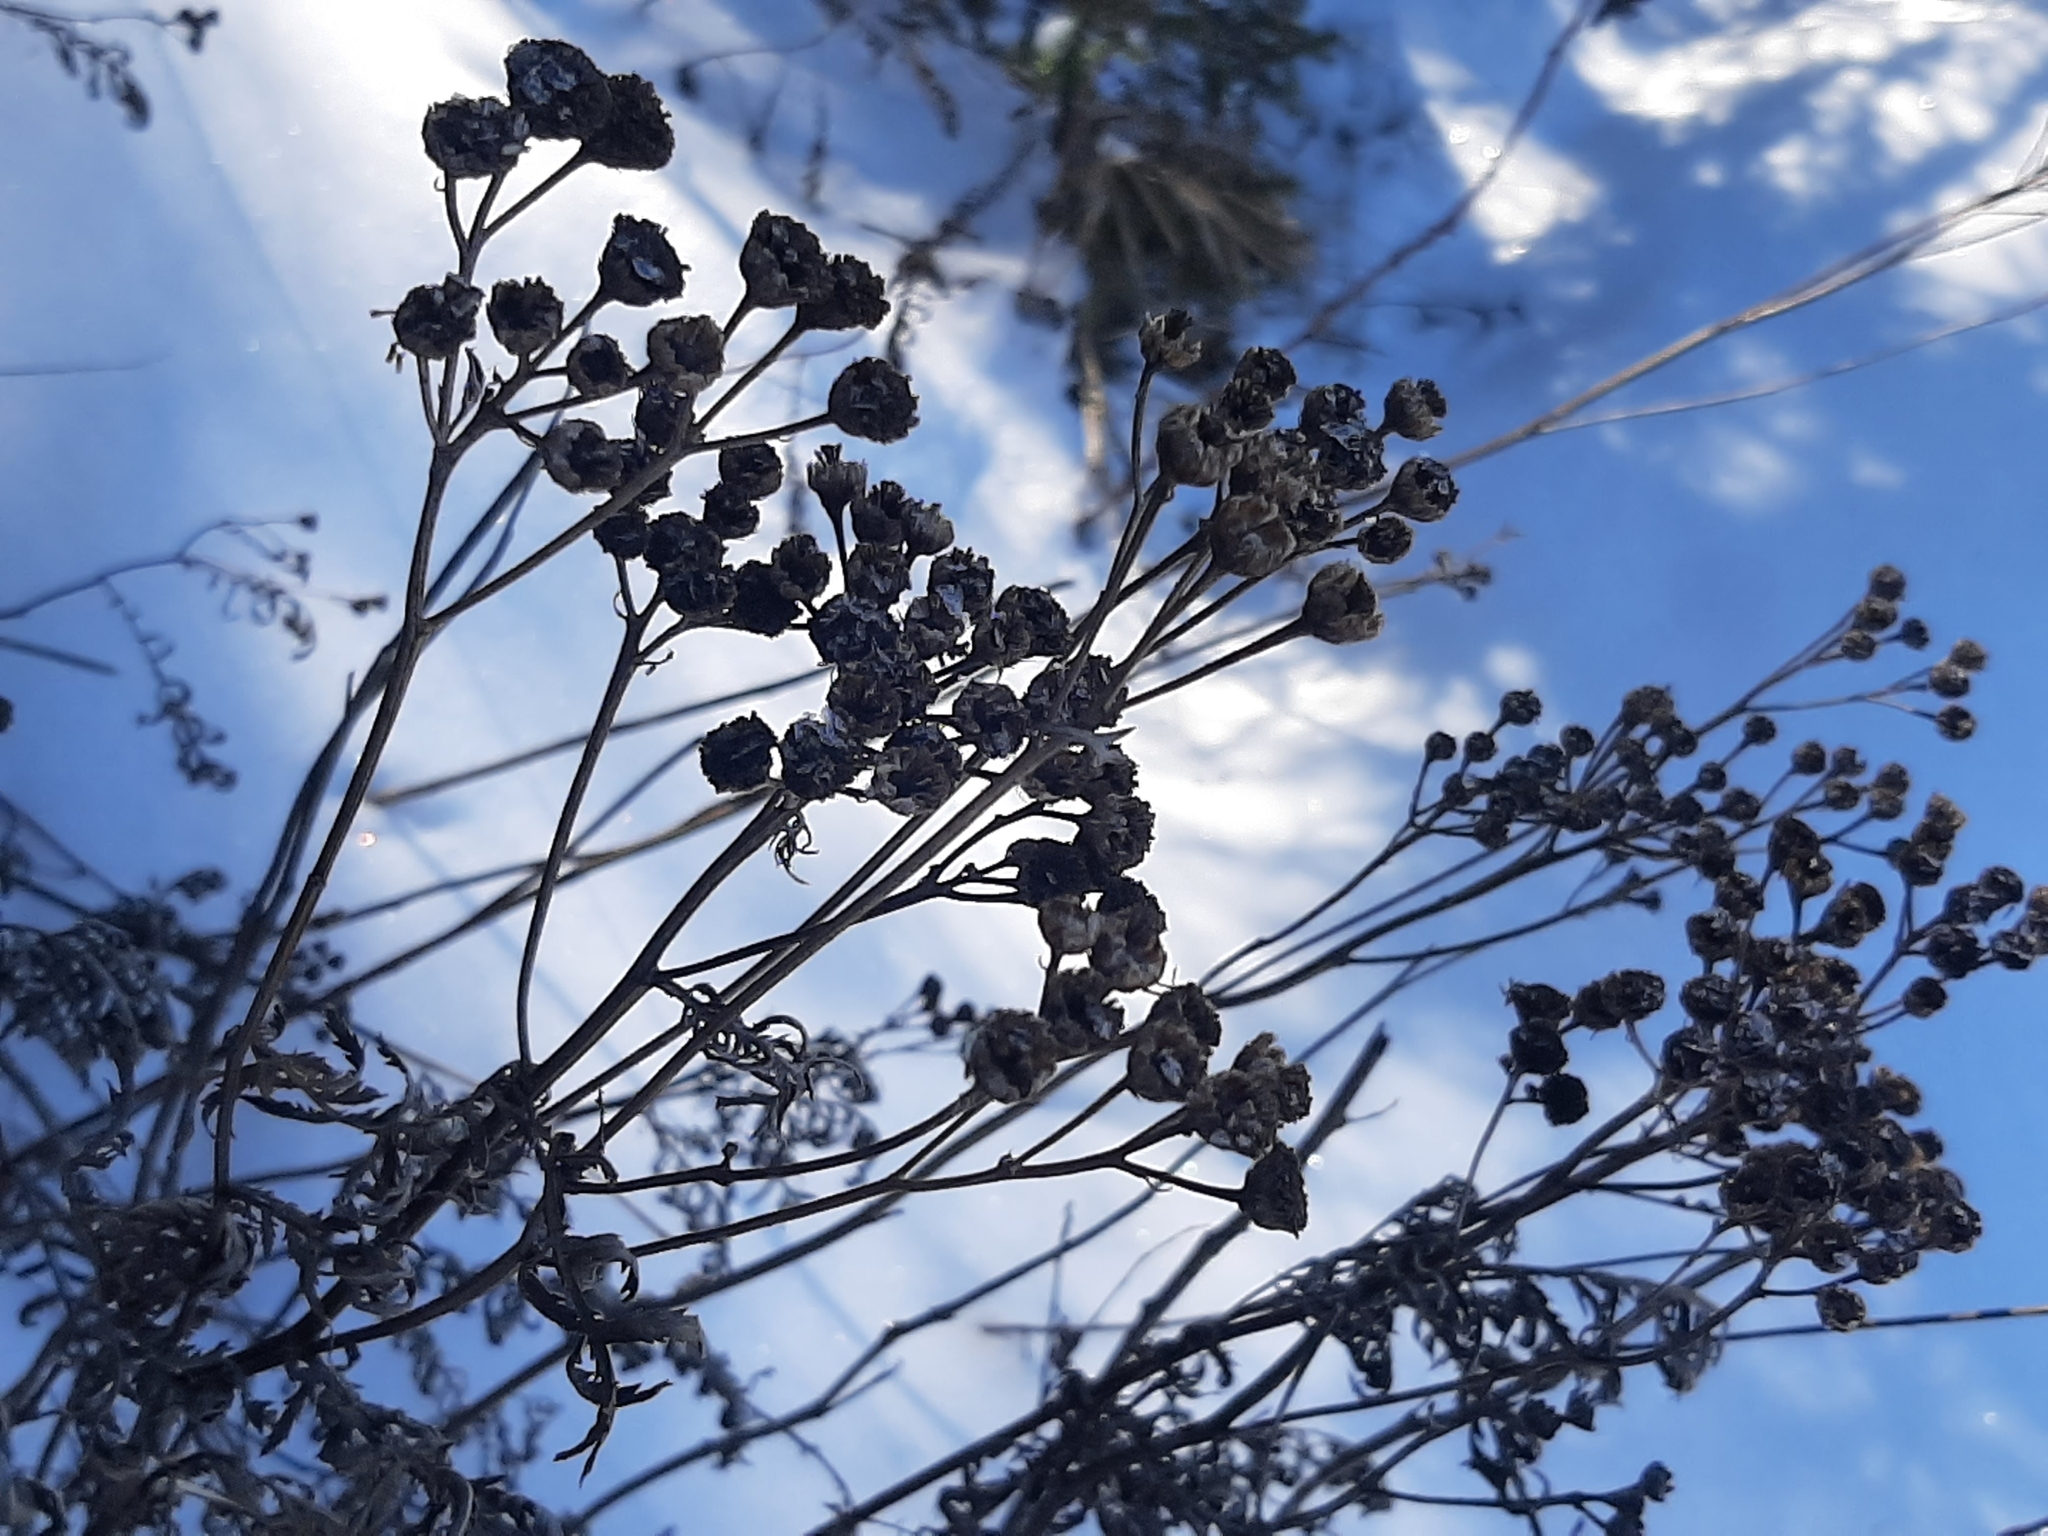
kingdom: Plantae
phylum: Tracheophyta
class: Magnoliopsida
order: Asterales
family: Asteraceae
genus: Tanacetum
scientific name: Tanacetum vulgare
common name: Common tansy
